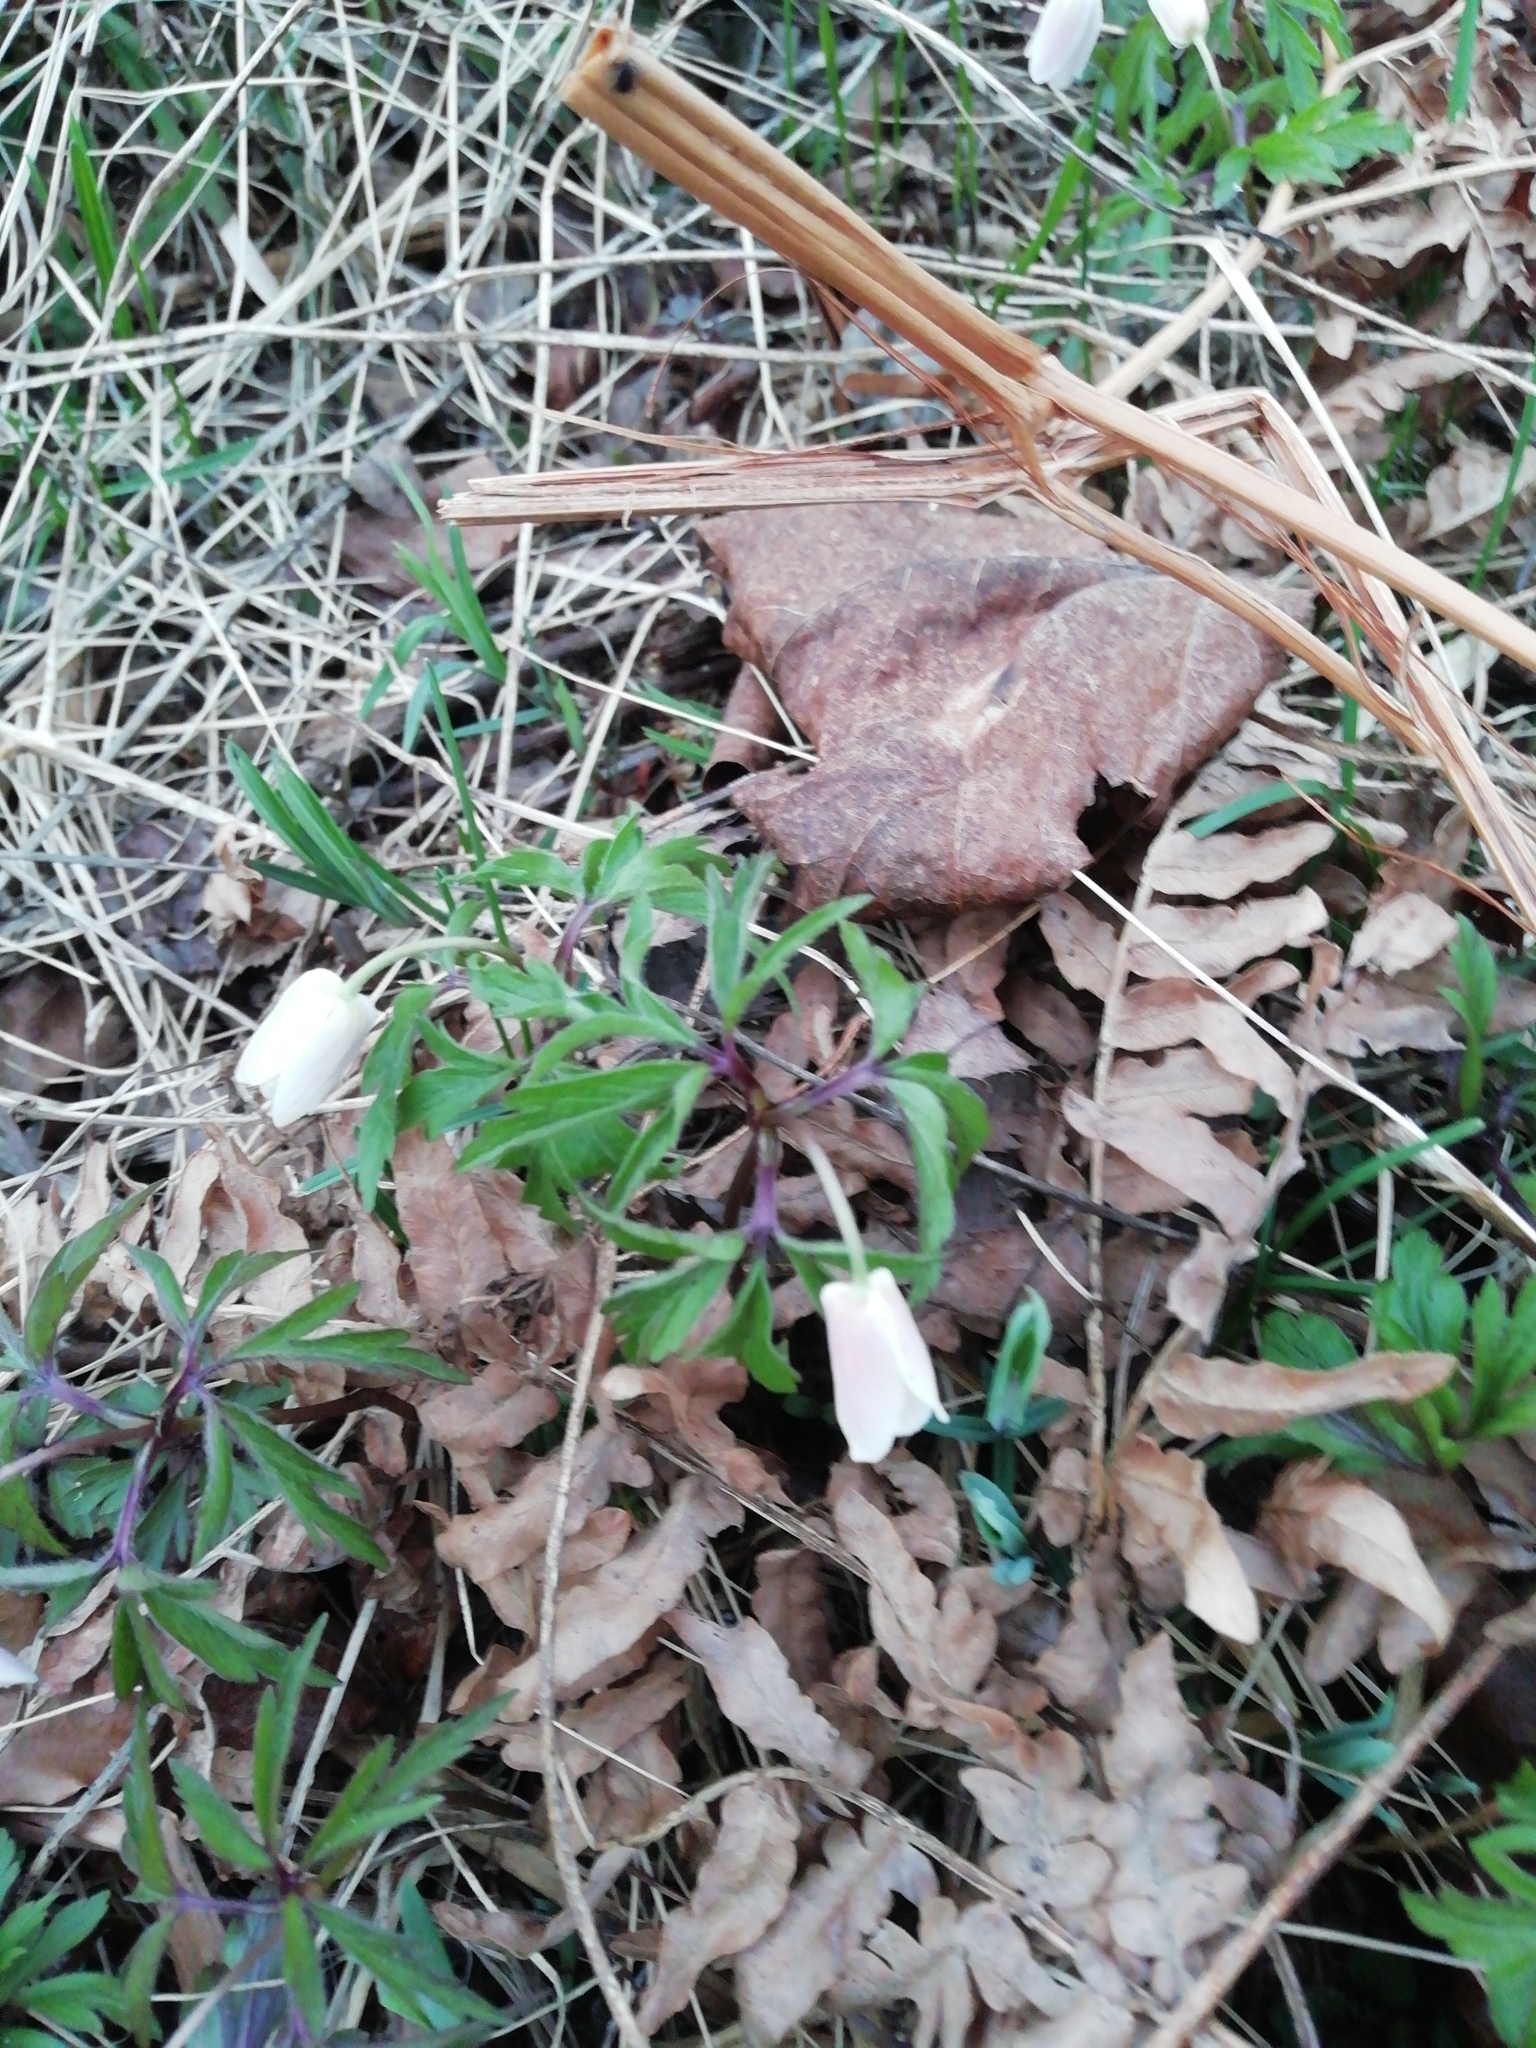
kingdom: Plantae
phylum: Tracheophyta
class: Magnoliopsida
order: Ranunculales
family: Ranunculaceae
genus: Anemone
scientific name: Anemone nemorosa
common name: Wood anemone
